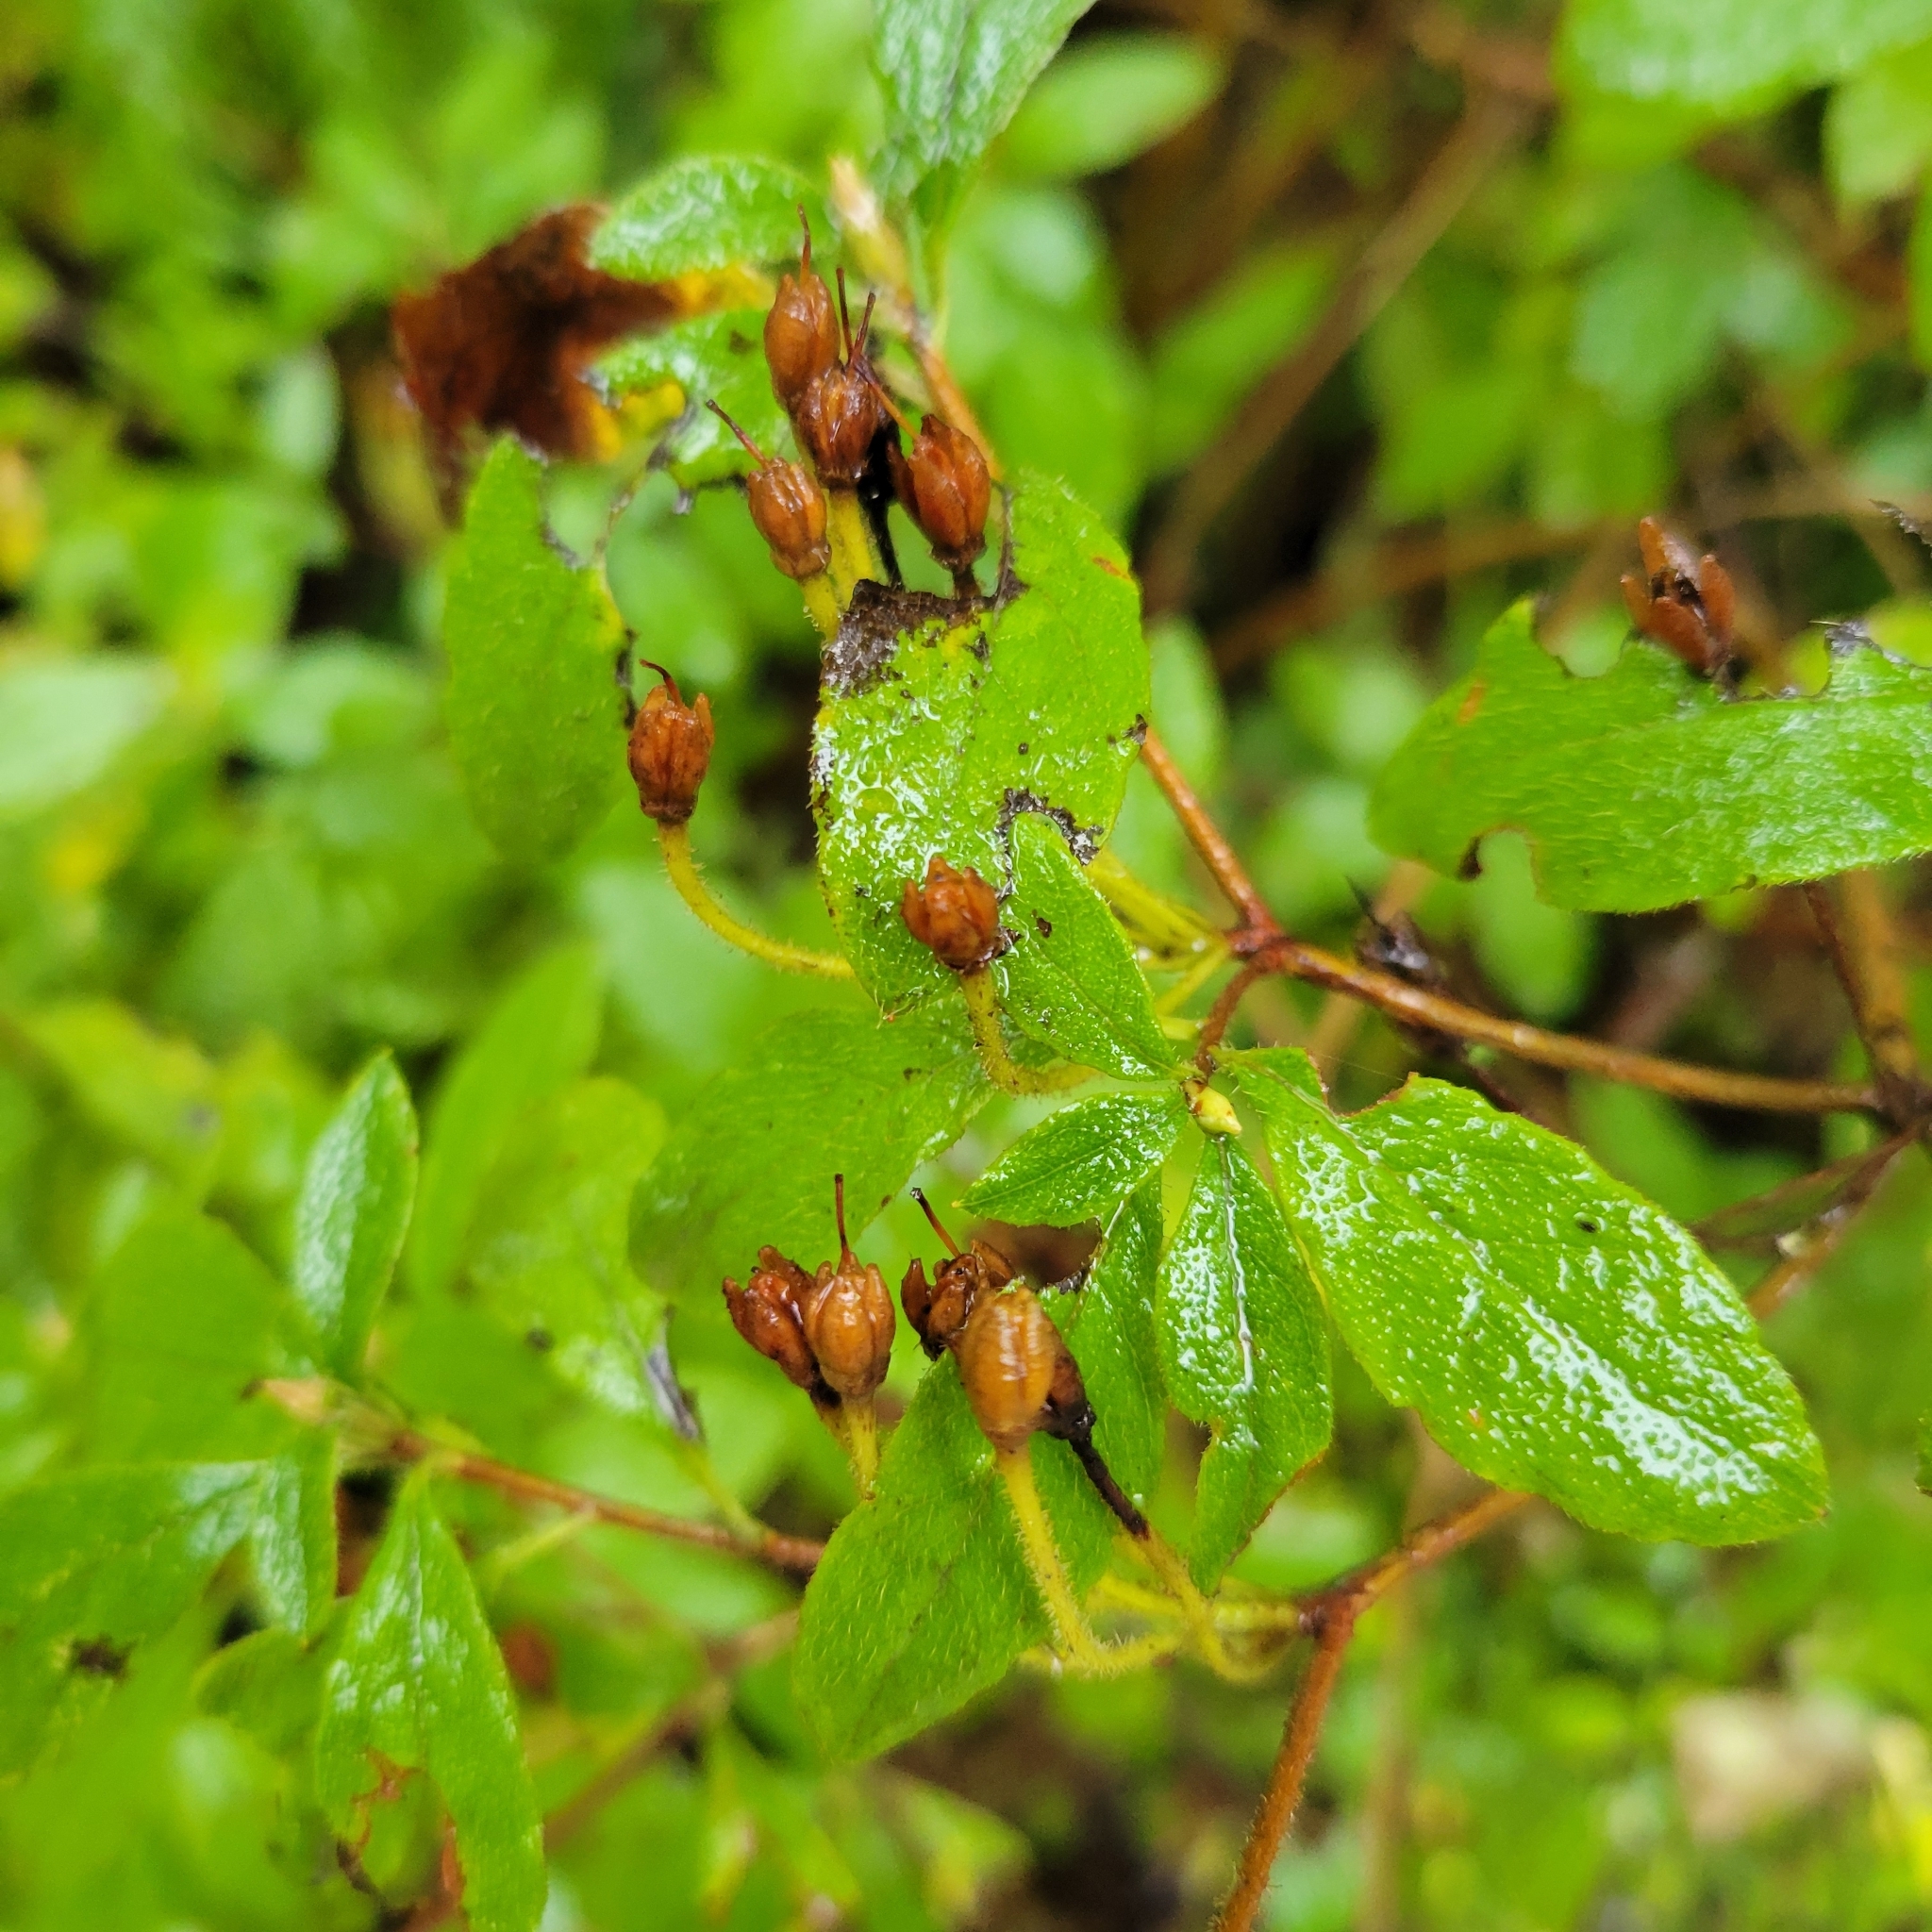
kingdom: Plantae
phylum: Tracheophyta
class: Magnoliopsida
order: Ericales
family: Ericaceae
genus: Rhododendron
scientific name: Rhododendron menziesii
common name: Pacific menziesia
